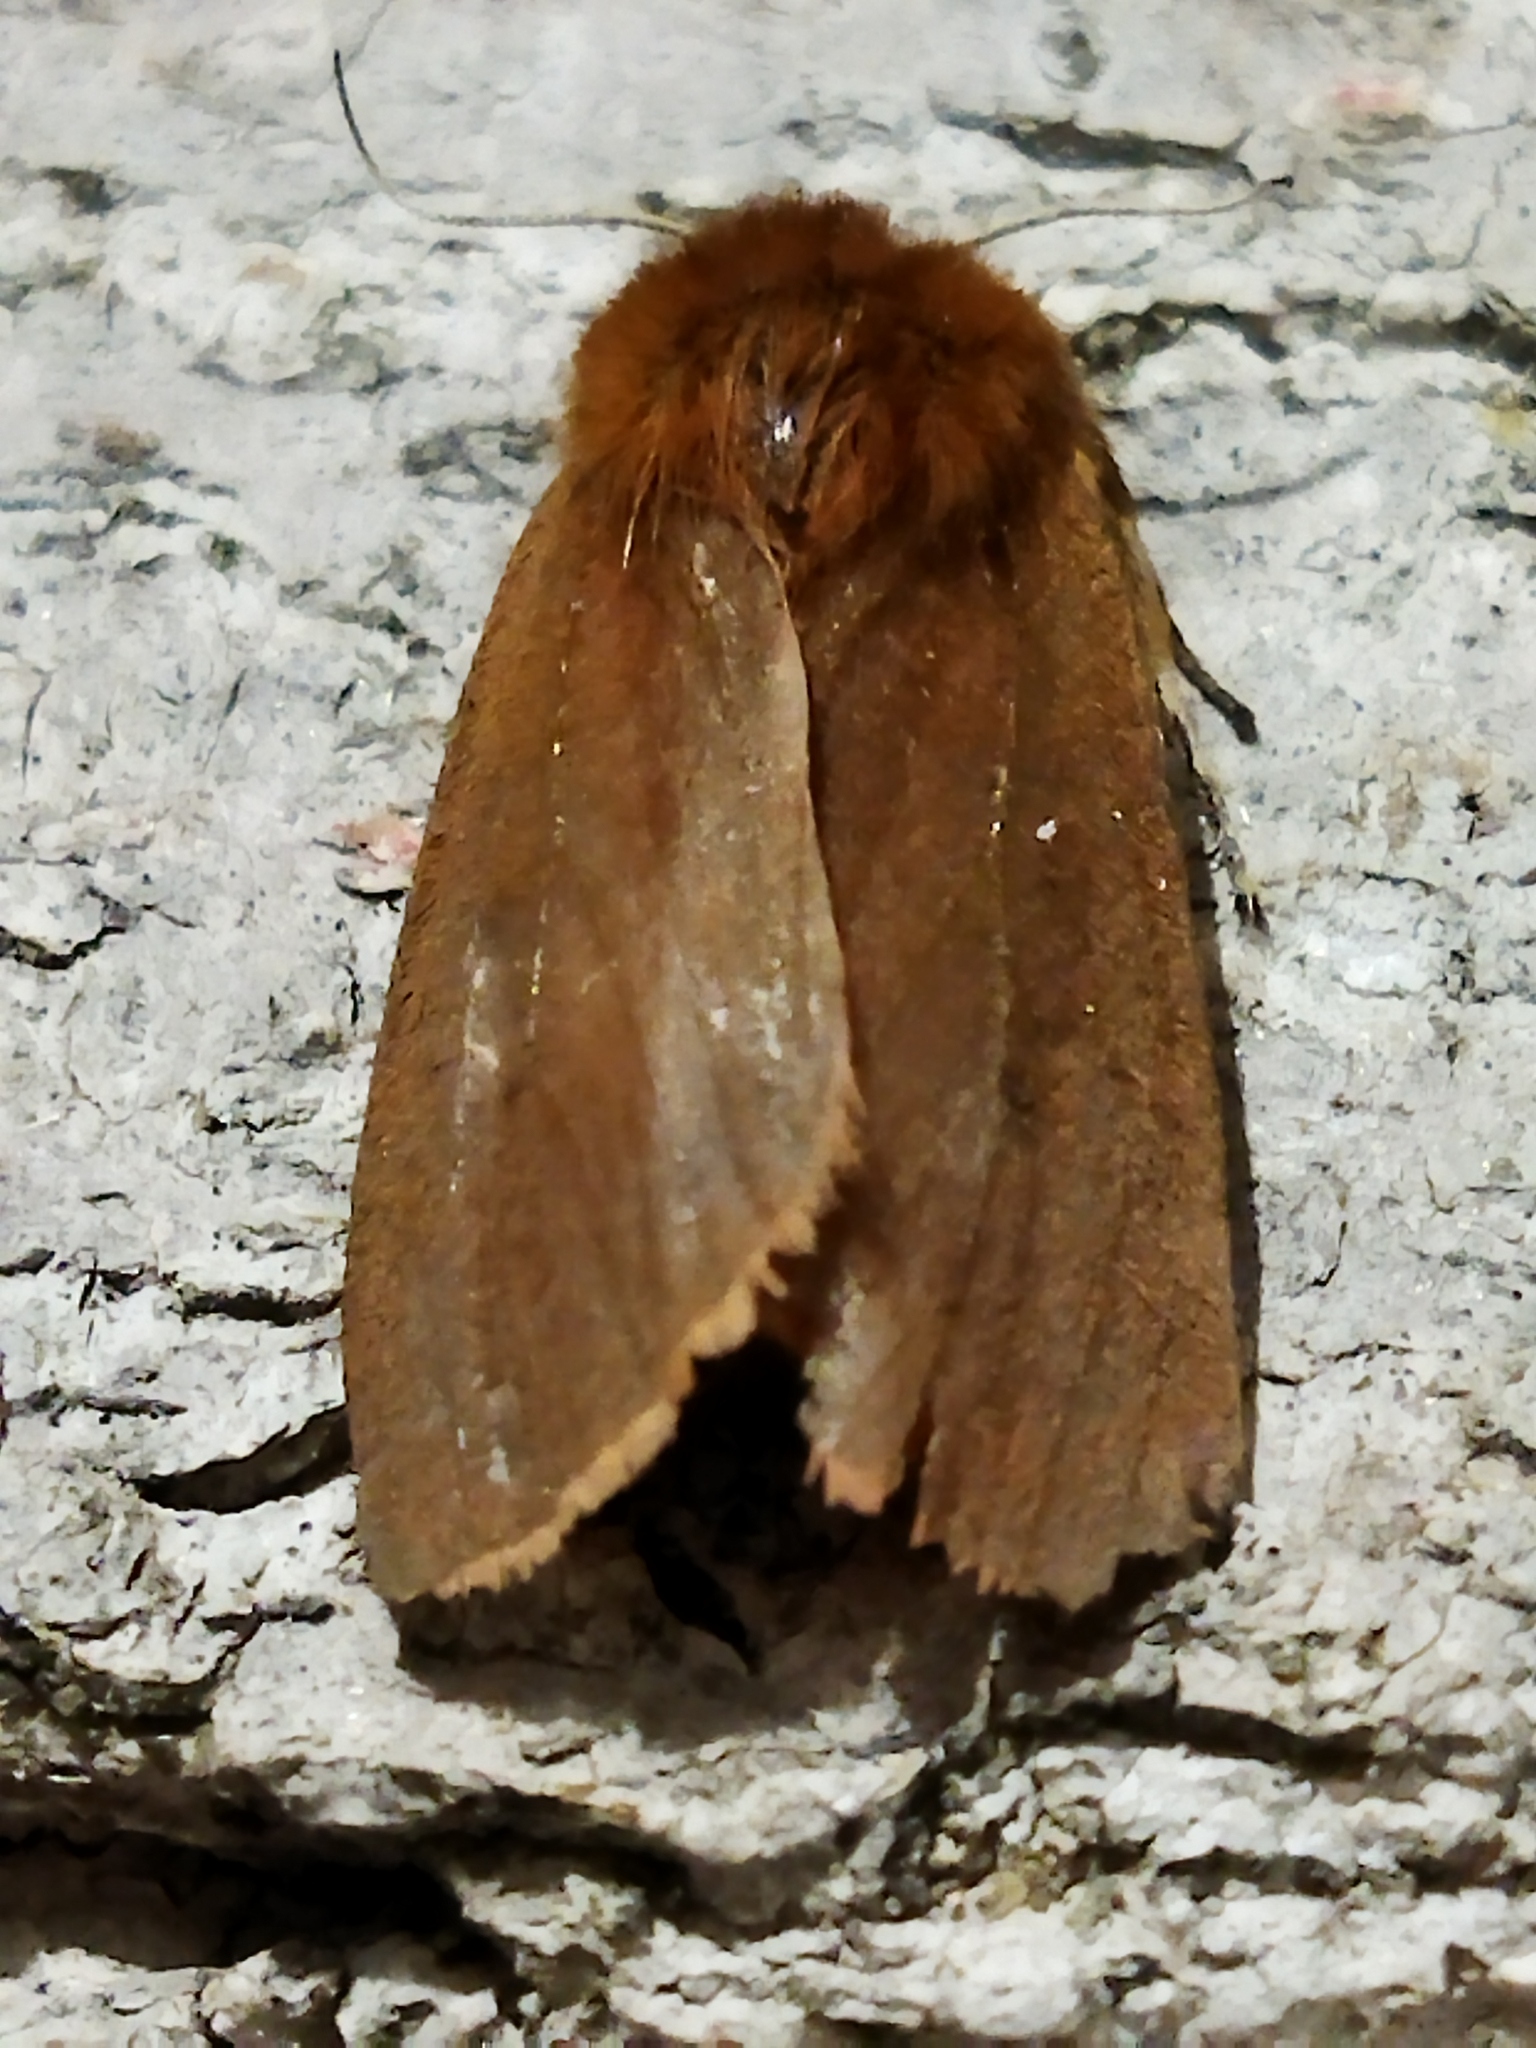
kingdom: Animalia
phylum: Arthropoda
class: Insecta
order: Lepidoptera
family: Erebidae
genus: Phragmatobia
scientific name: Phragmatobia fuliginosa
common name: Ruby tiger
